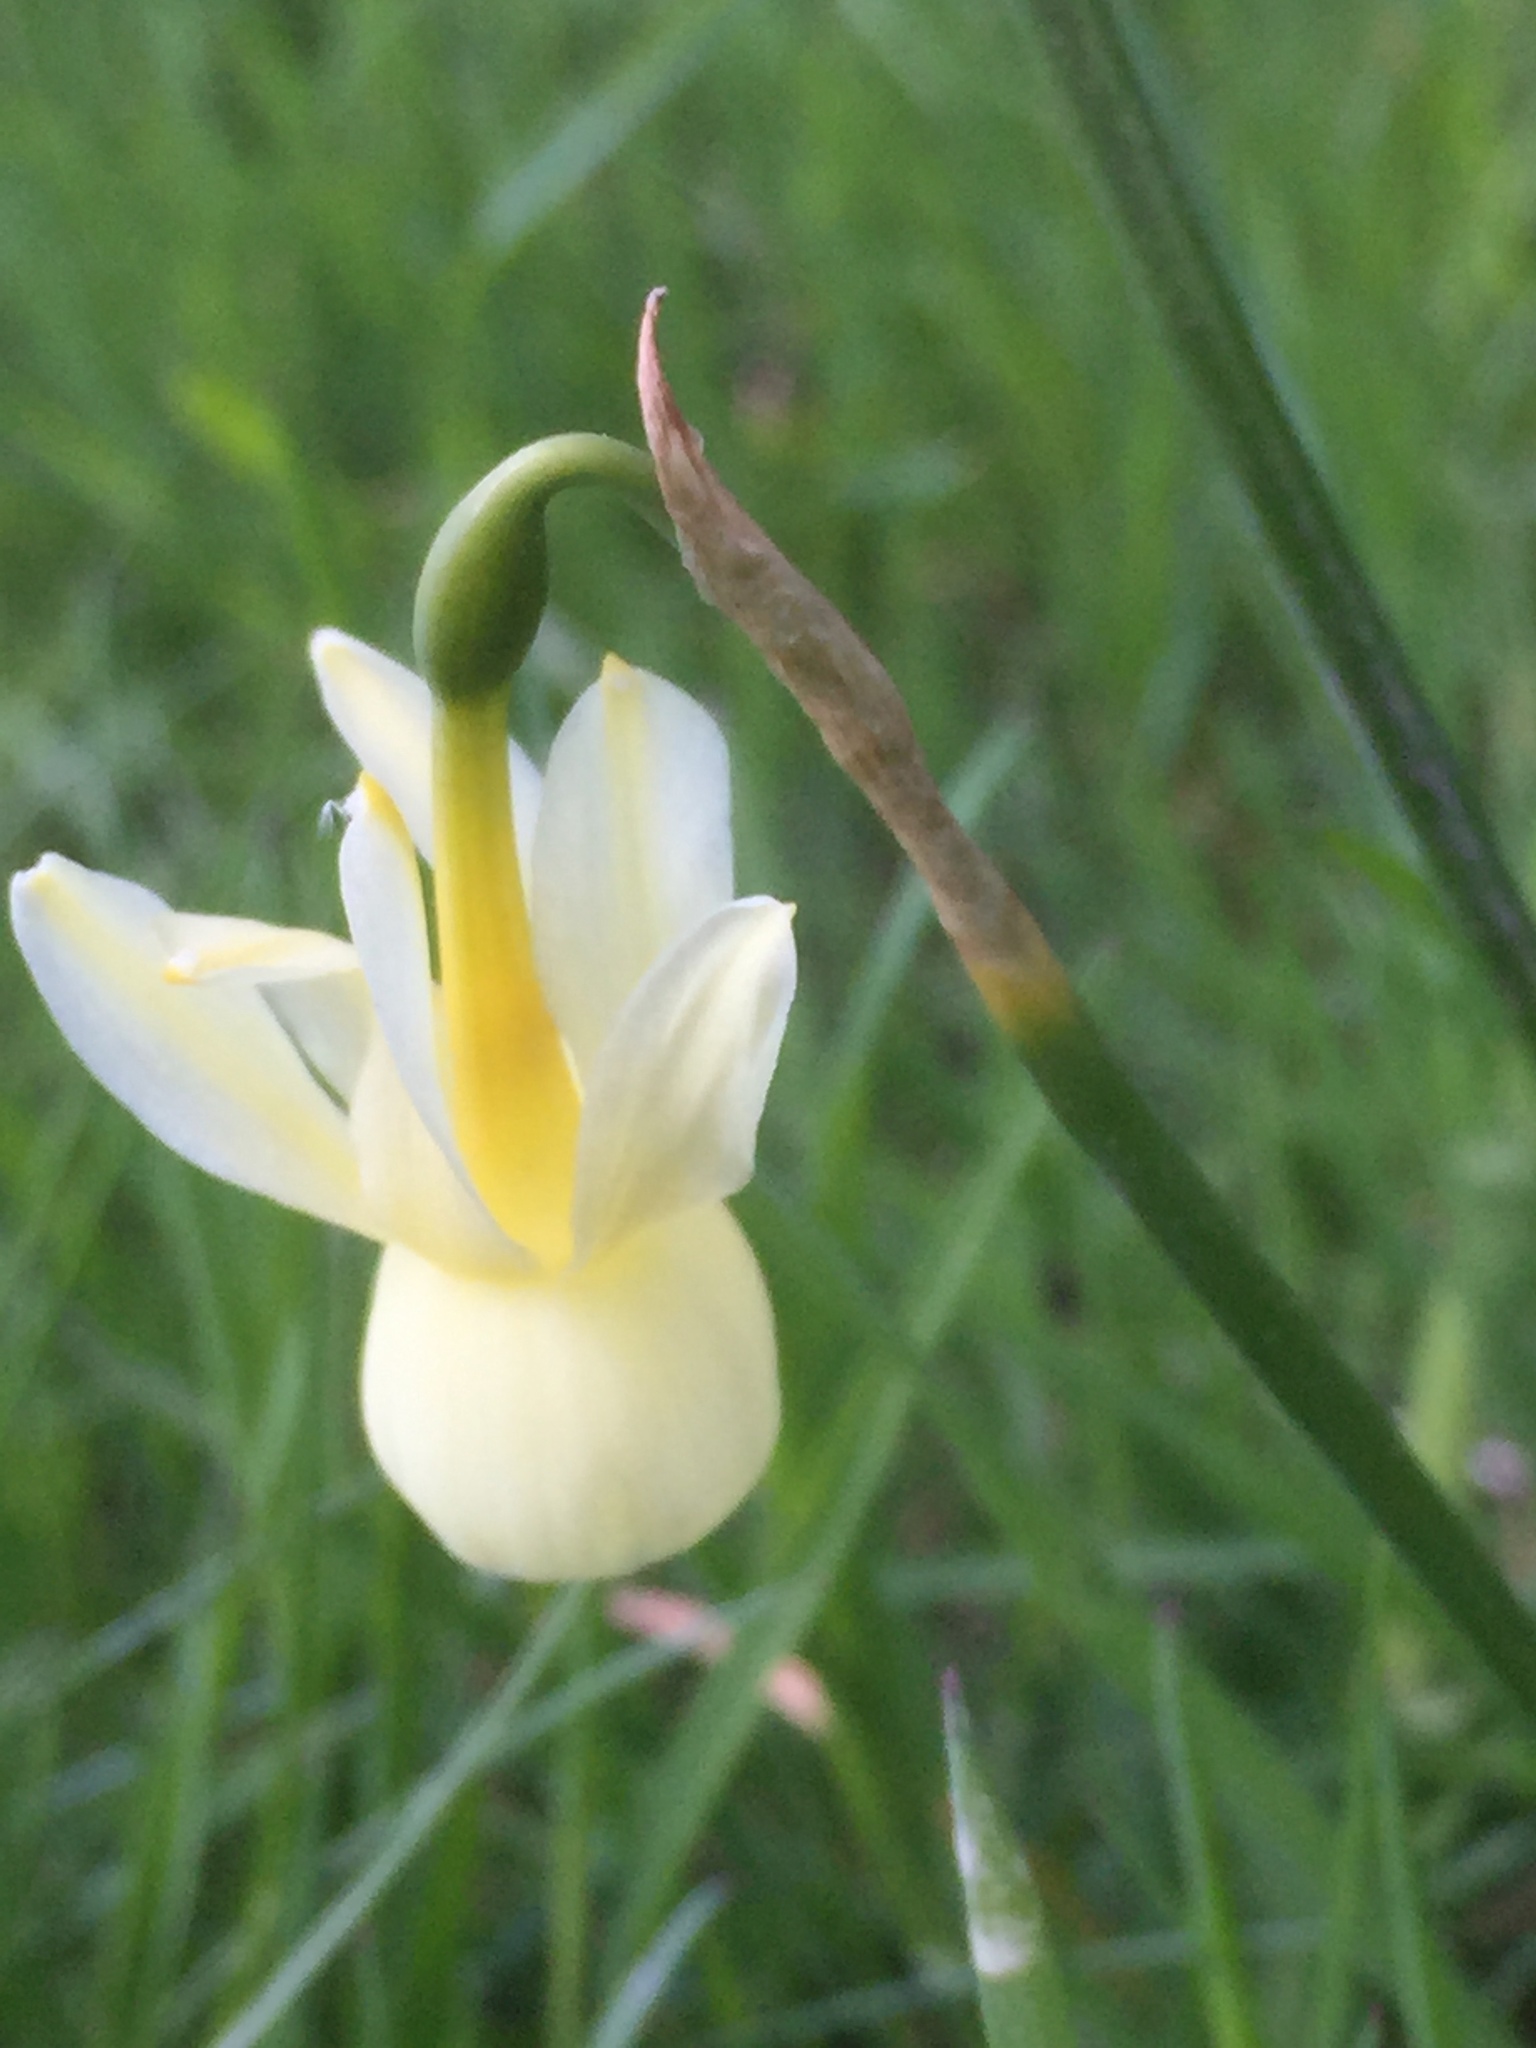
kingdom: Plantae
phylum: Tracheophyta
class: Liliopsida
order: Asparagales
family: Amaryllidaceae
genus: Narcissus
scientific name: Narcissus triandrus
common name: Angel's-tears
